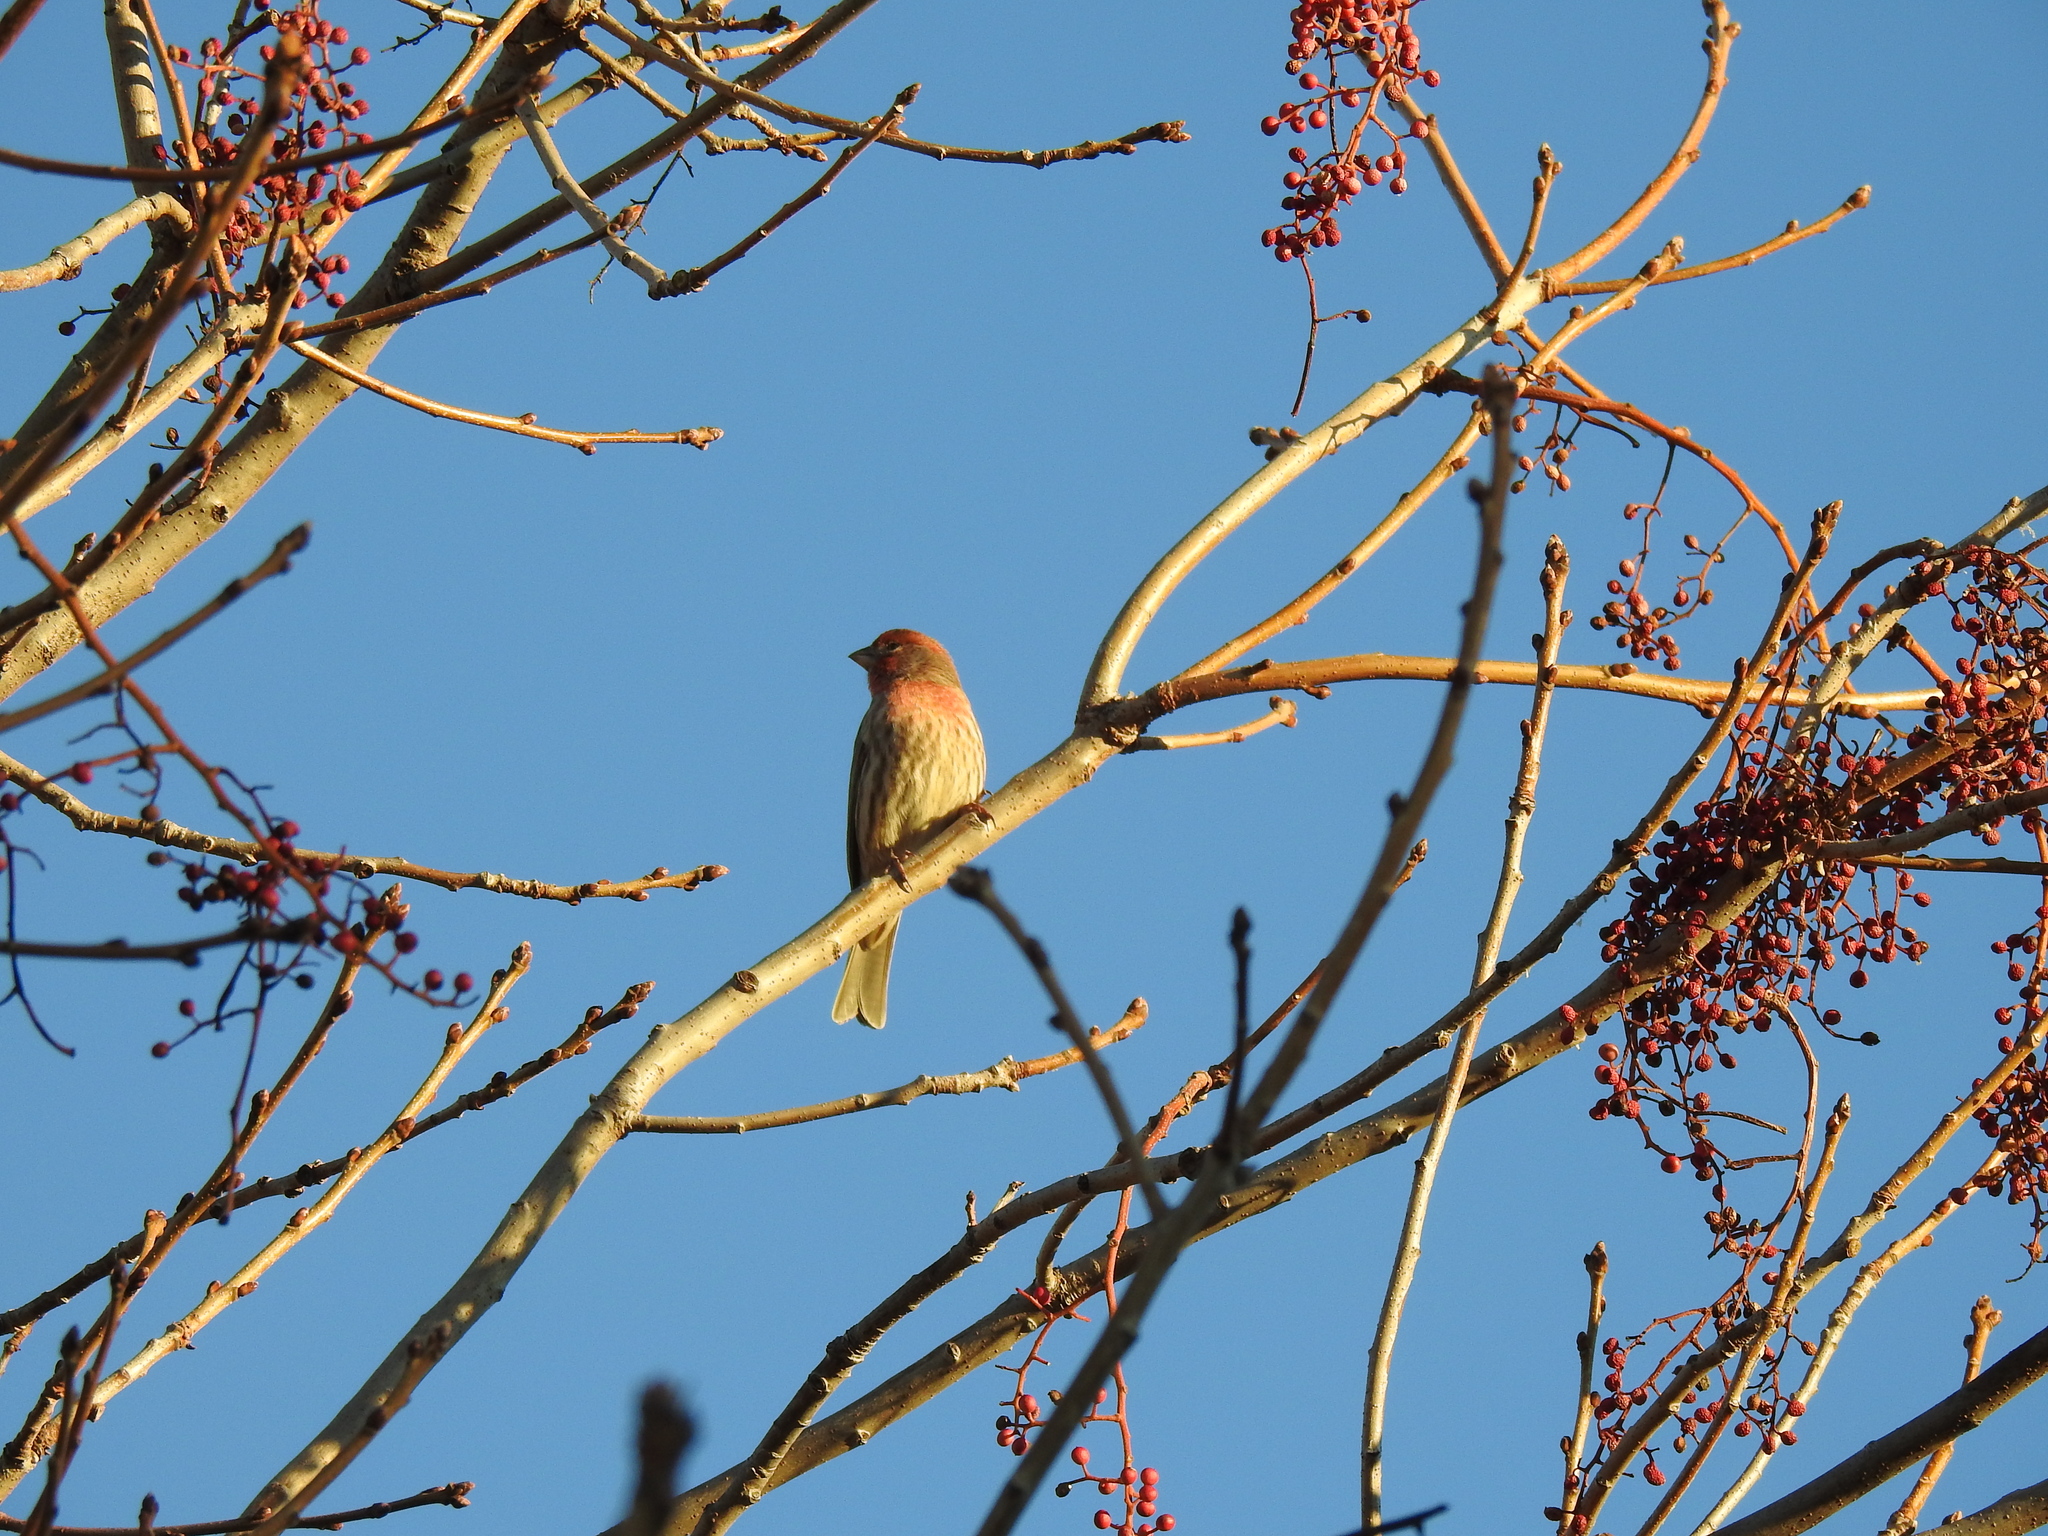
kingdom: Animalia
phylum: Chordata
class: Aves
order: Passeriformes
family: Fringillidae
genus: Haemorhous
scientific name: Haemorhous mexicanus
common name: House finch
